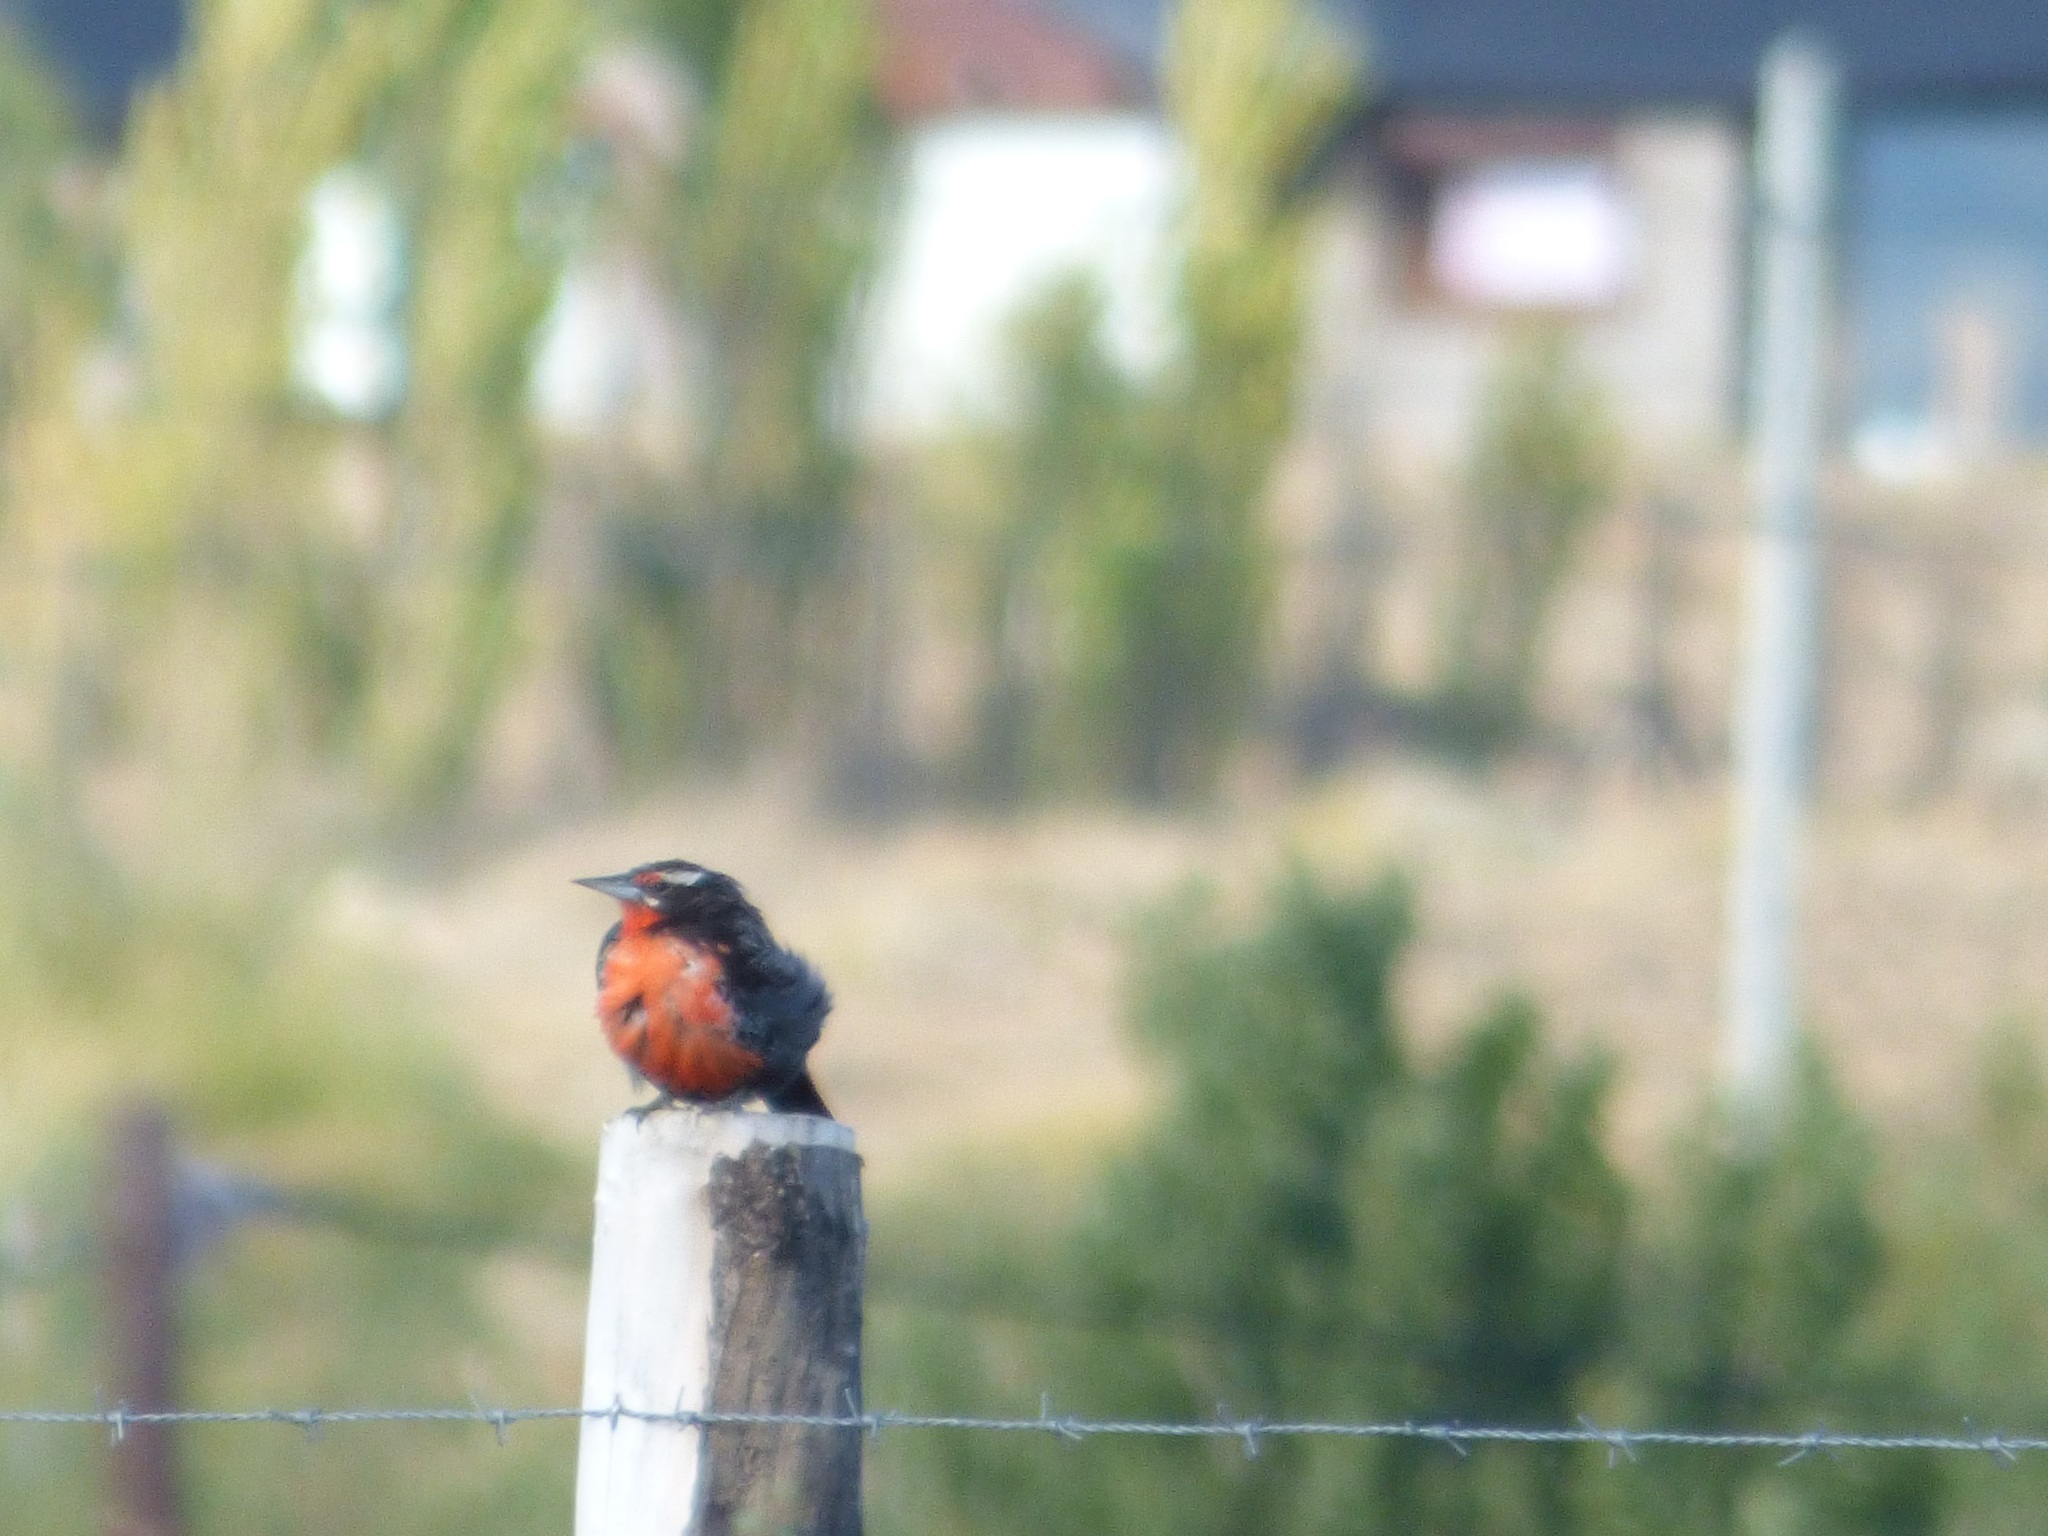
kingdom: Animalia
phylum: Chordata
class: Aves
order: Passeriformes
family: Icteridae
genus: Sturnella
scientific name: Sturnella loyca
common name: Long-tailed meadowlark
